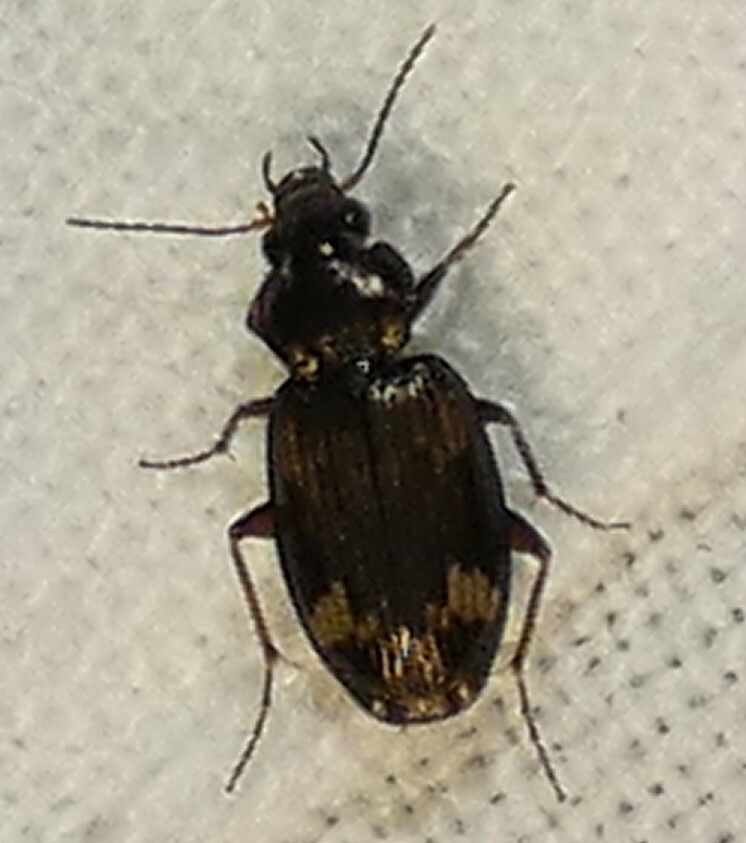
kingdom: Animalia
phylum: Arthropoda
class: Insecta
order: Coleoptera
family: Carabidae
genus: Tetragonoderus
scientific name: Tetragonoderus intersectus
